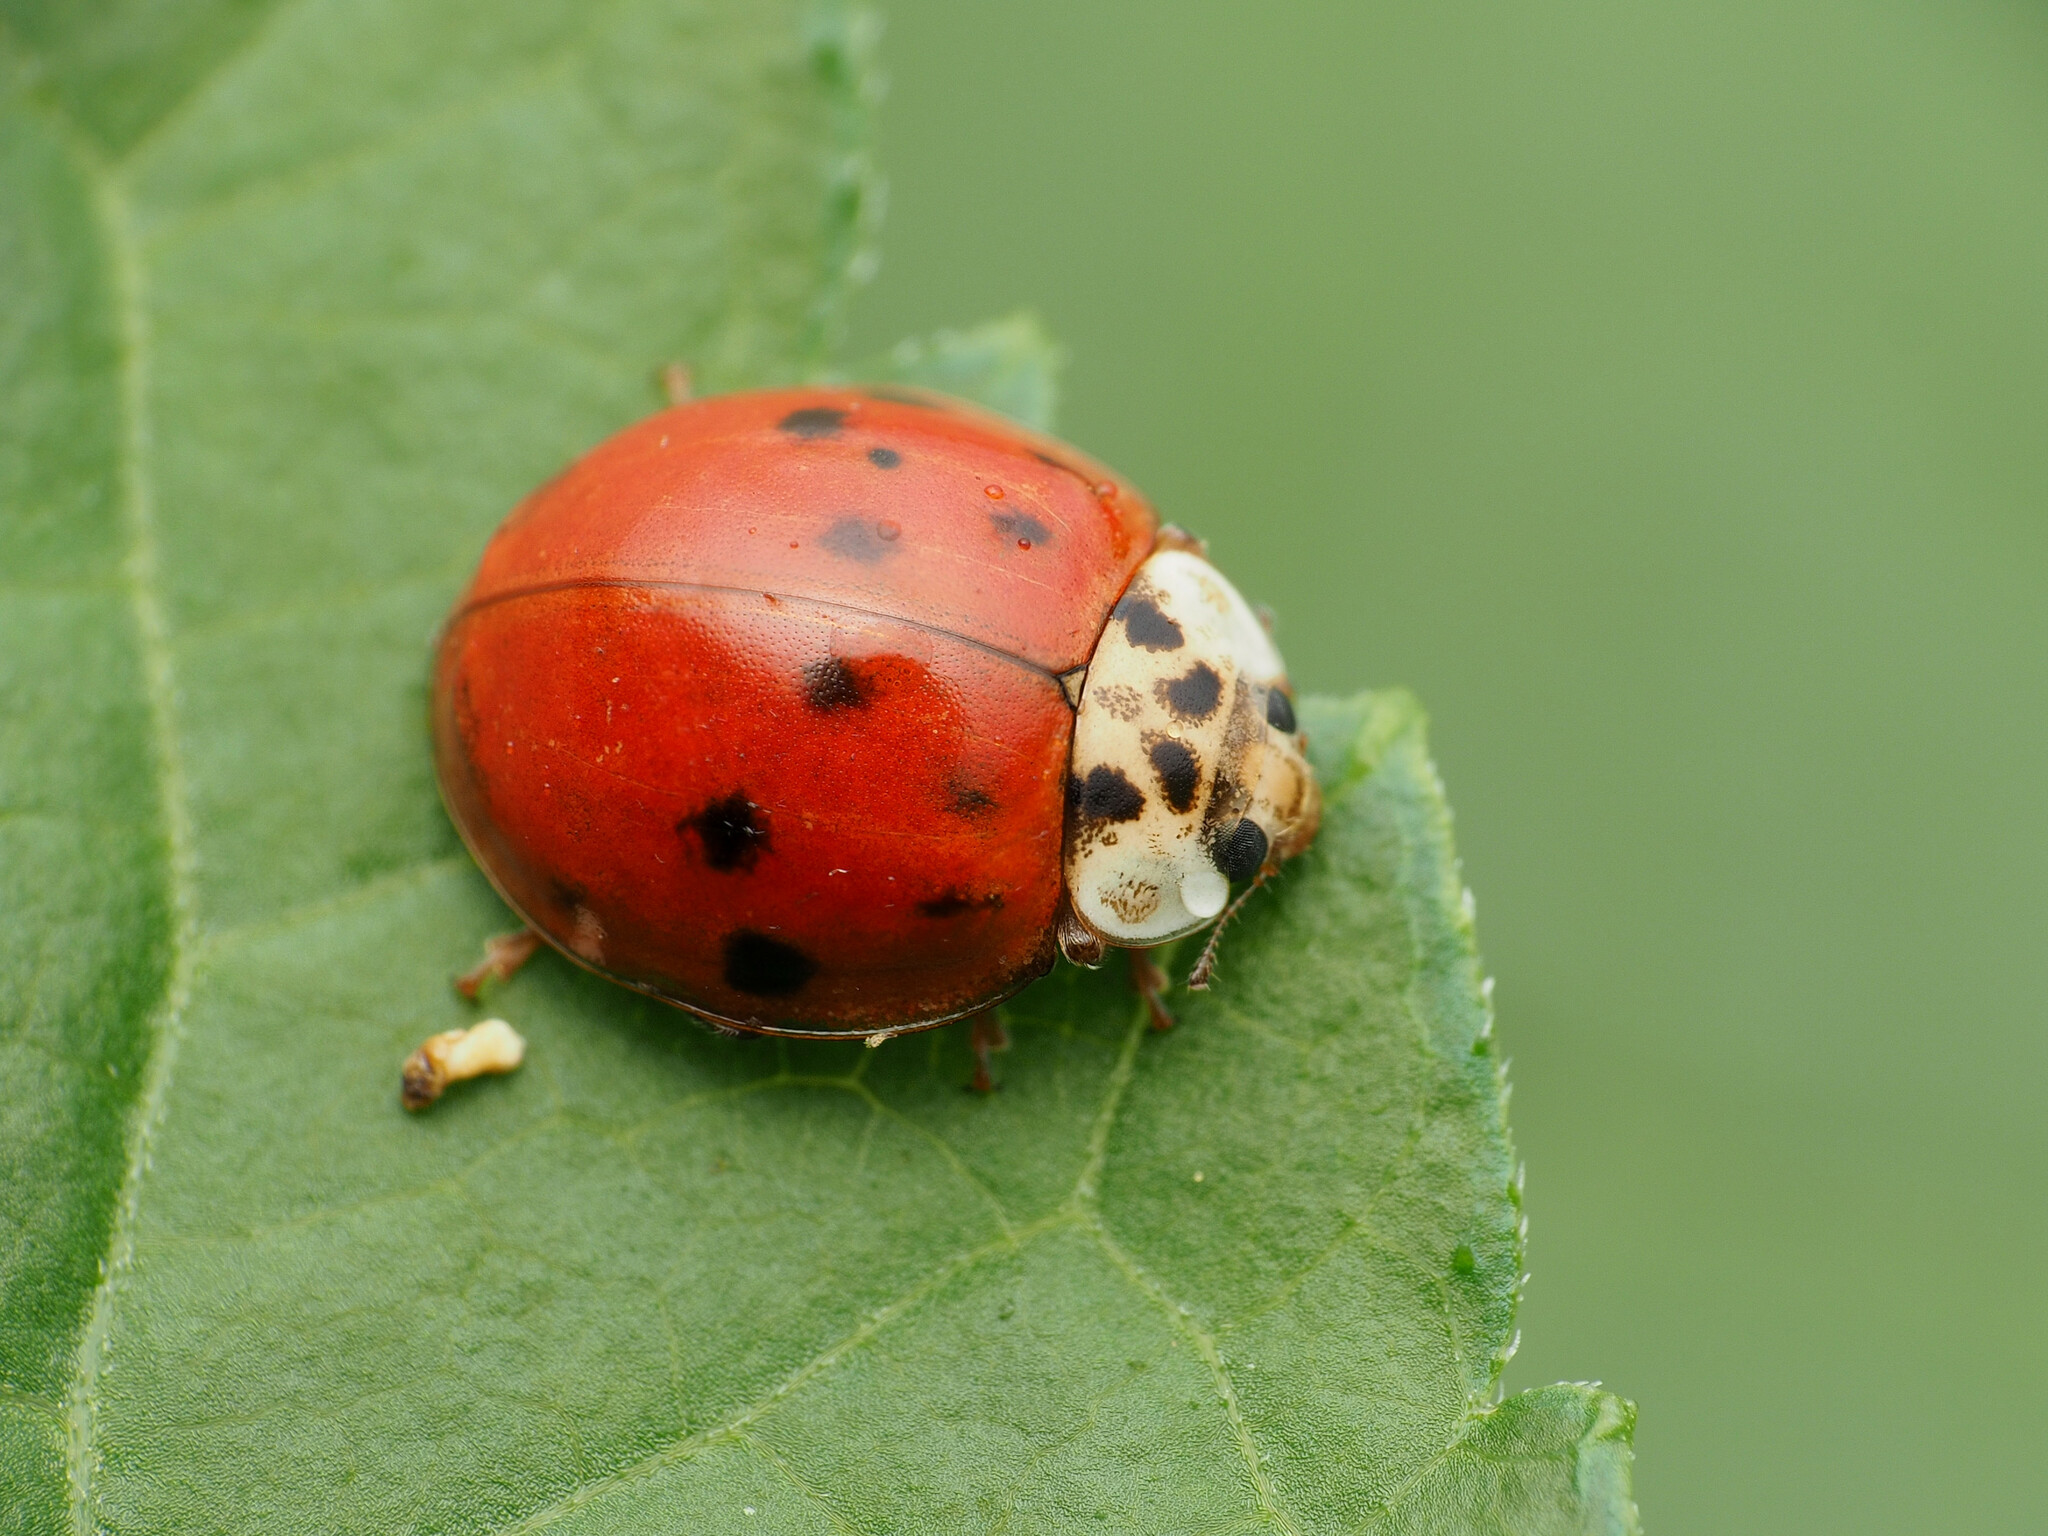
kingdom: Animalia
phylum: Arthropoda
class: Insecta
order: Coleoptera
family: Coccinellidae
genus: Harmonia
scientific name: Harmonia axyridis
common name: Harlequin ladybird
